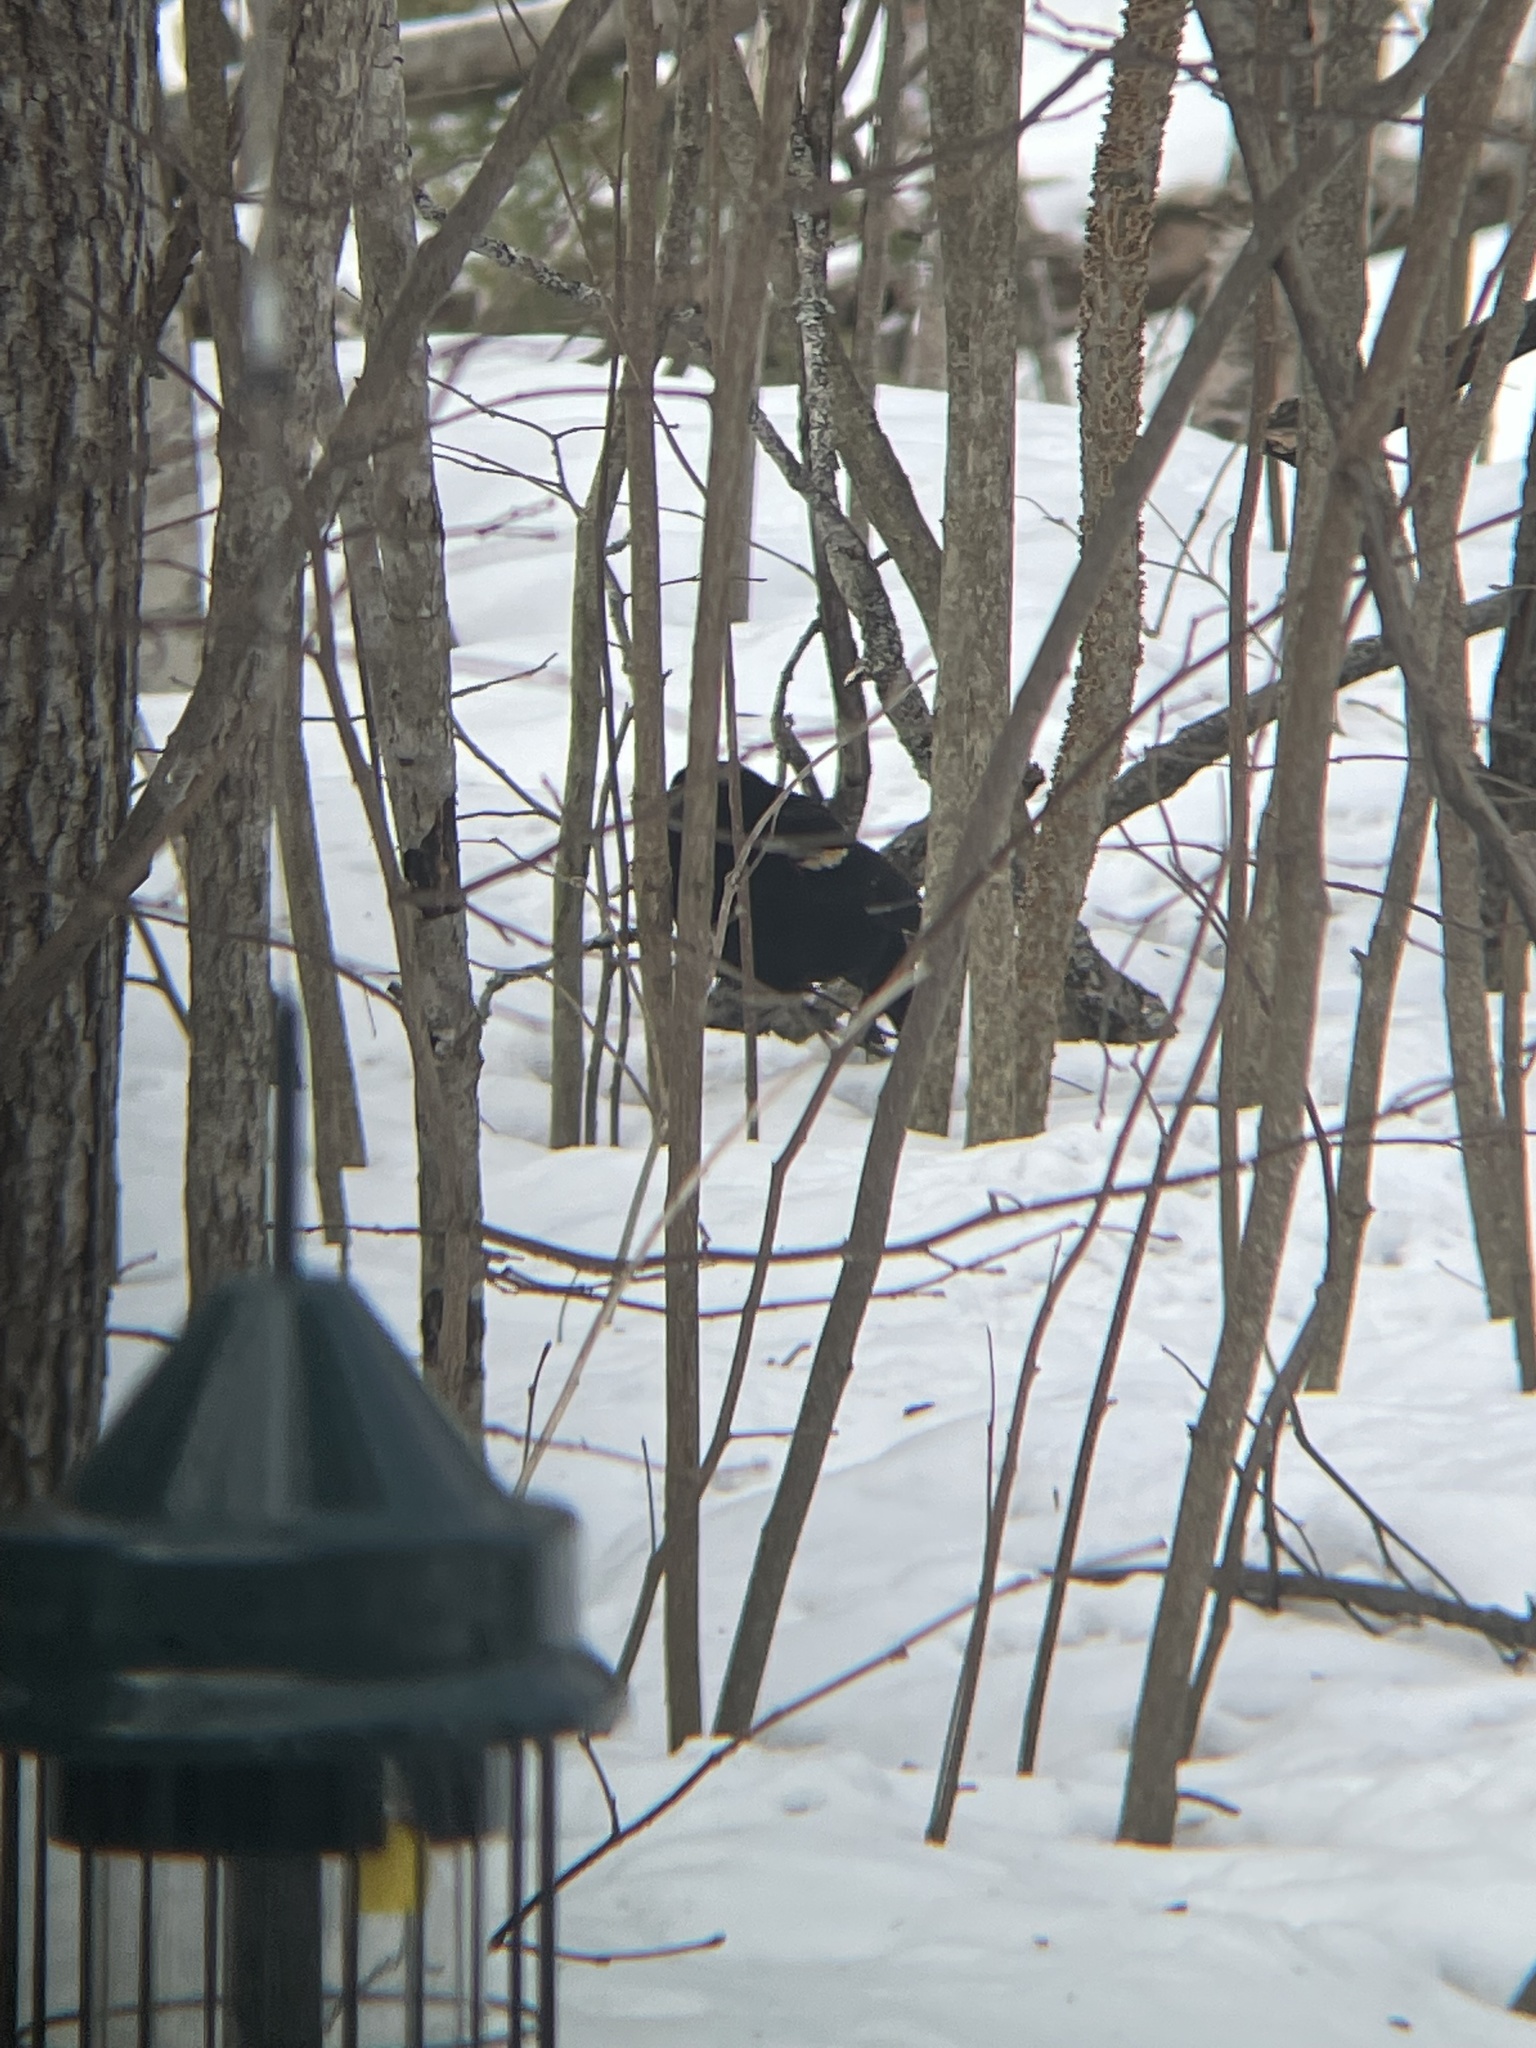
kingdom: Animalia
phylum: Chordata
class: Aves
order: Passeriformes
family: Icteridae
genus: Agelaius
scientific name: Agelaius phoeniceus
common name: Red-winged blackbird
